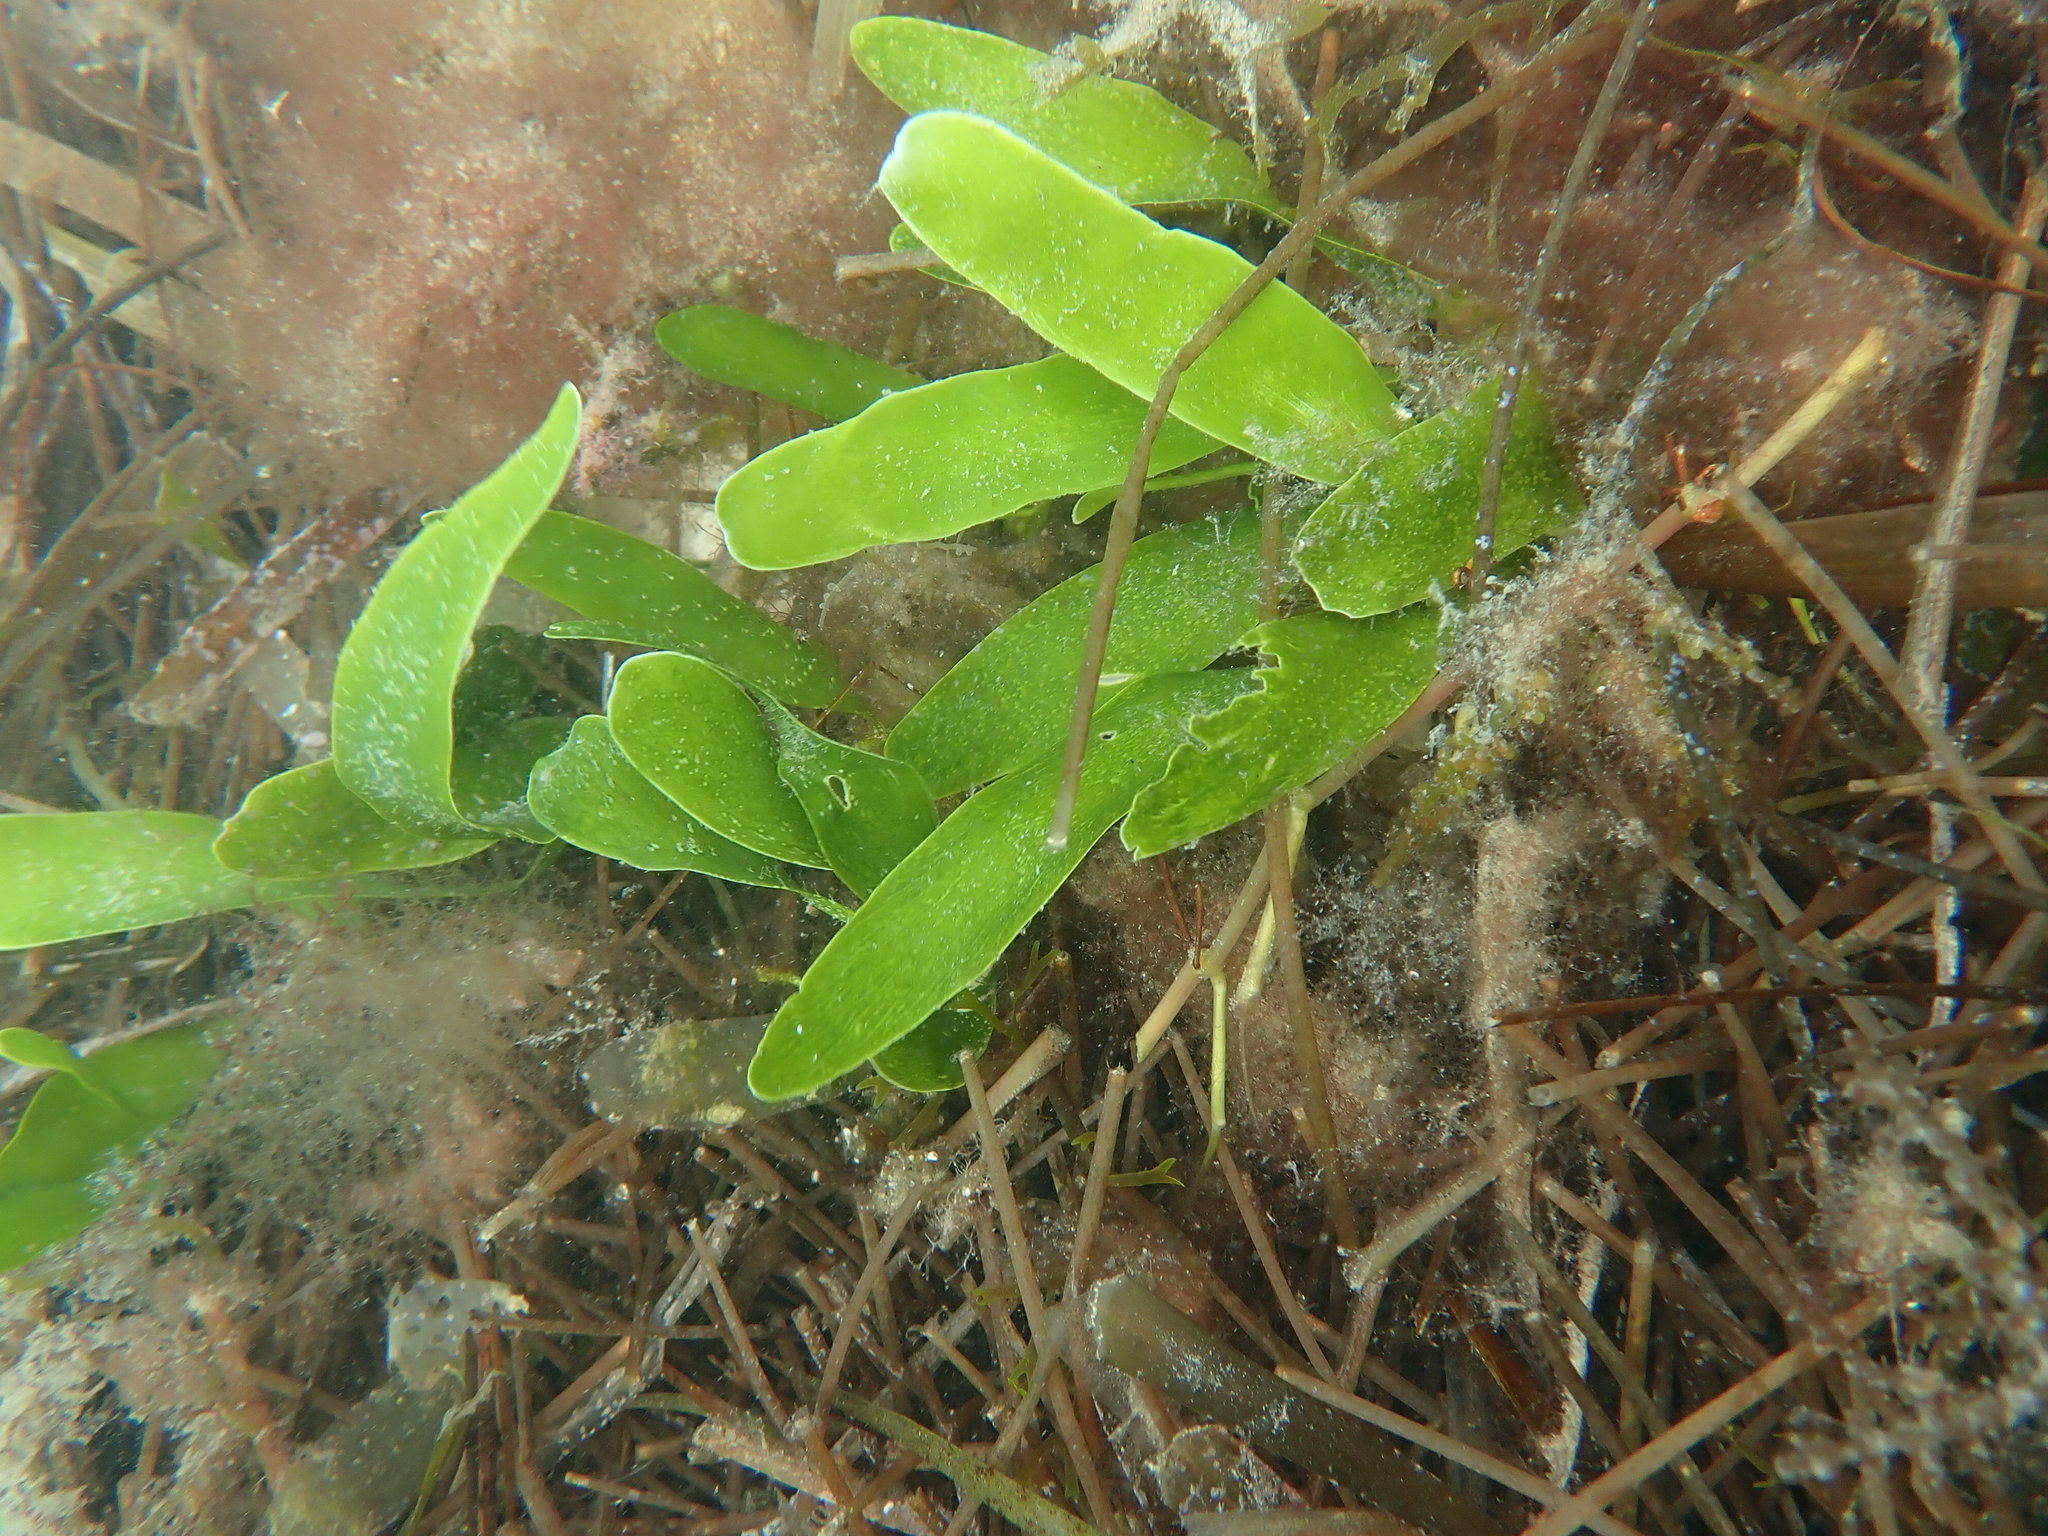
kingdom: Plantae
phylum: Chlorophyta
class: Ulvophyceae
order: Bryopsidales
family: Caulerpaceae
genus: Caulerpa
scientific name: Caulerpa prolifera
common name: Oval-blade algae
